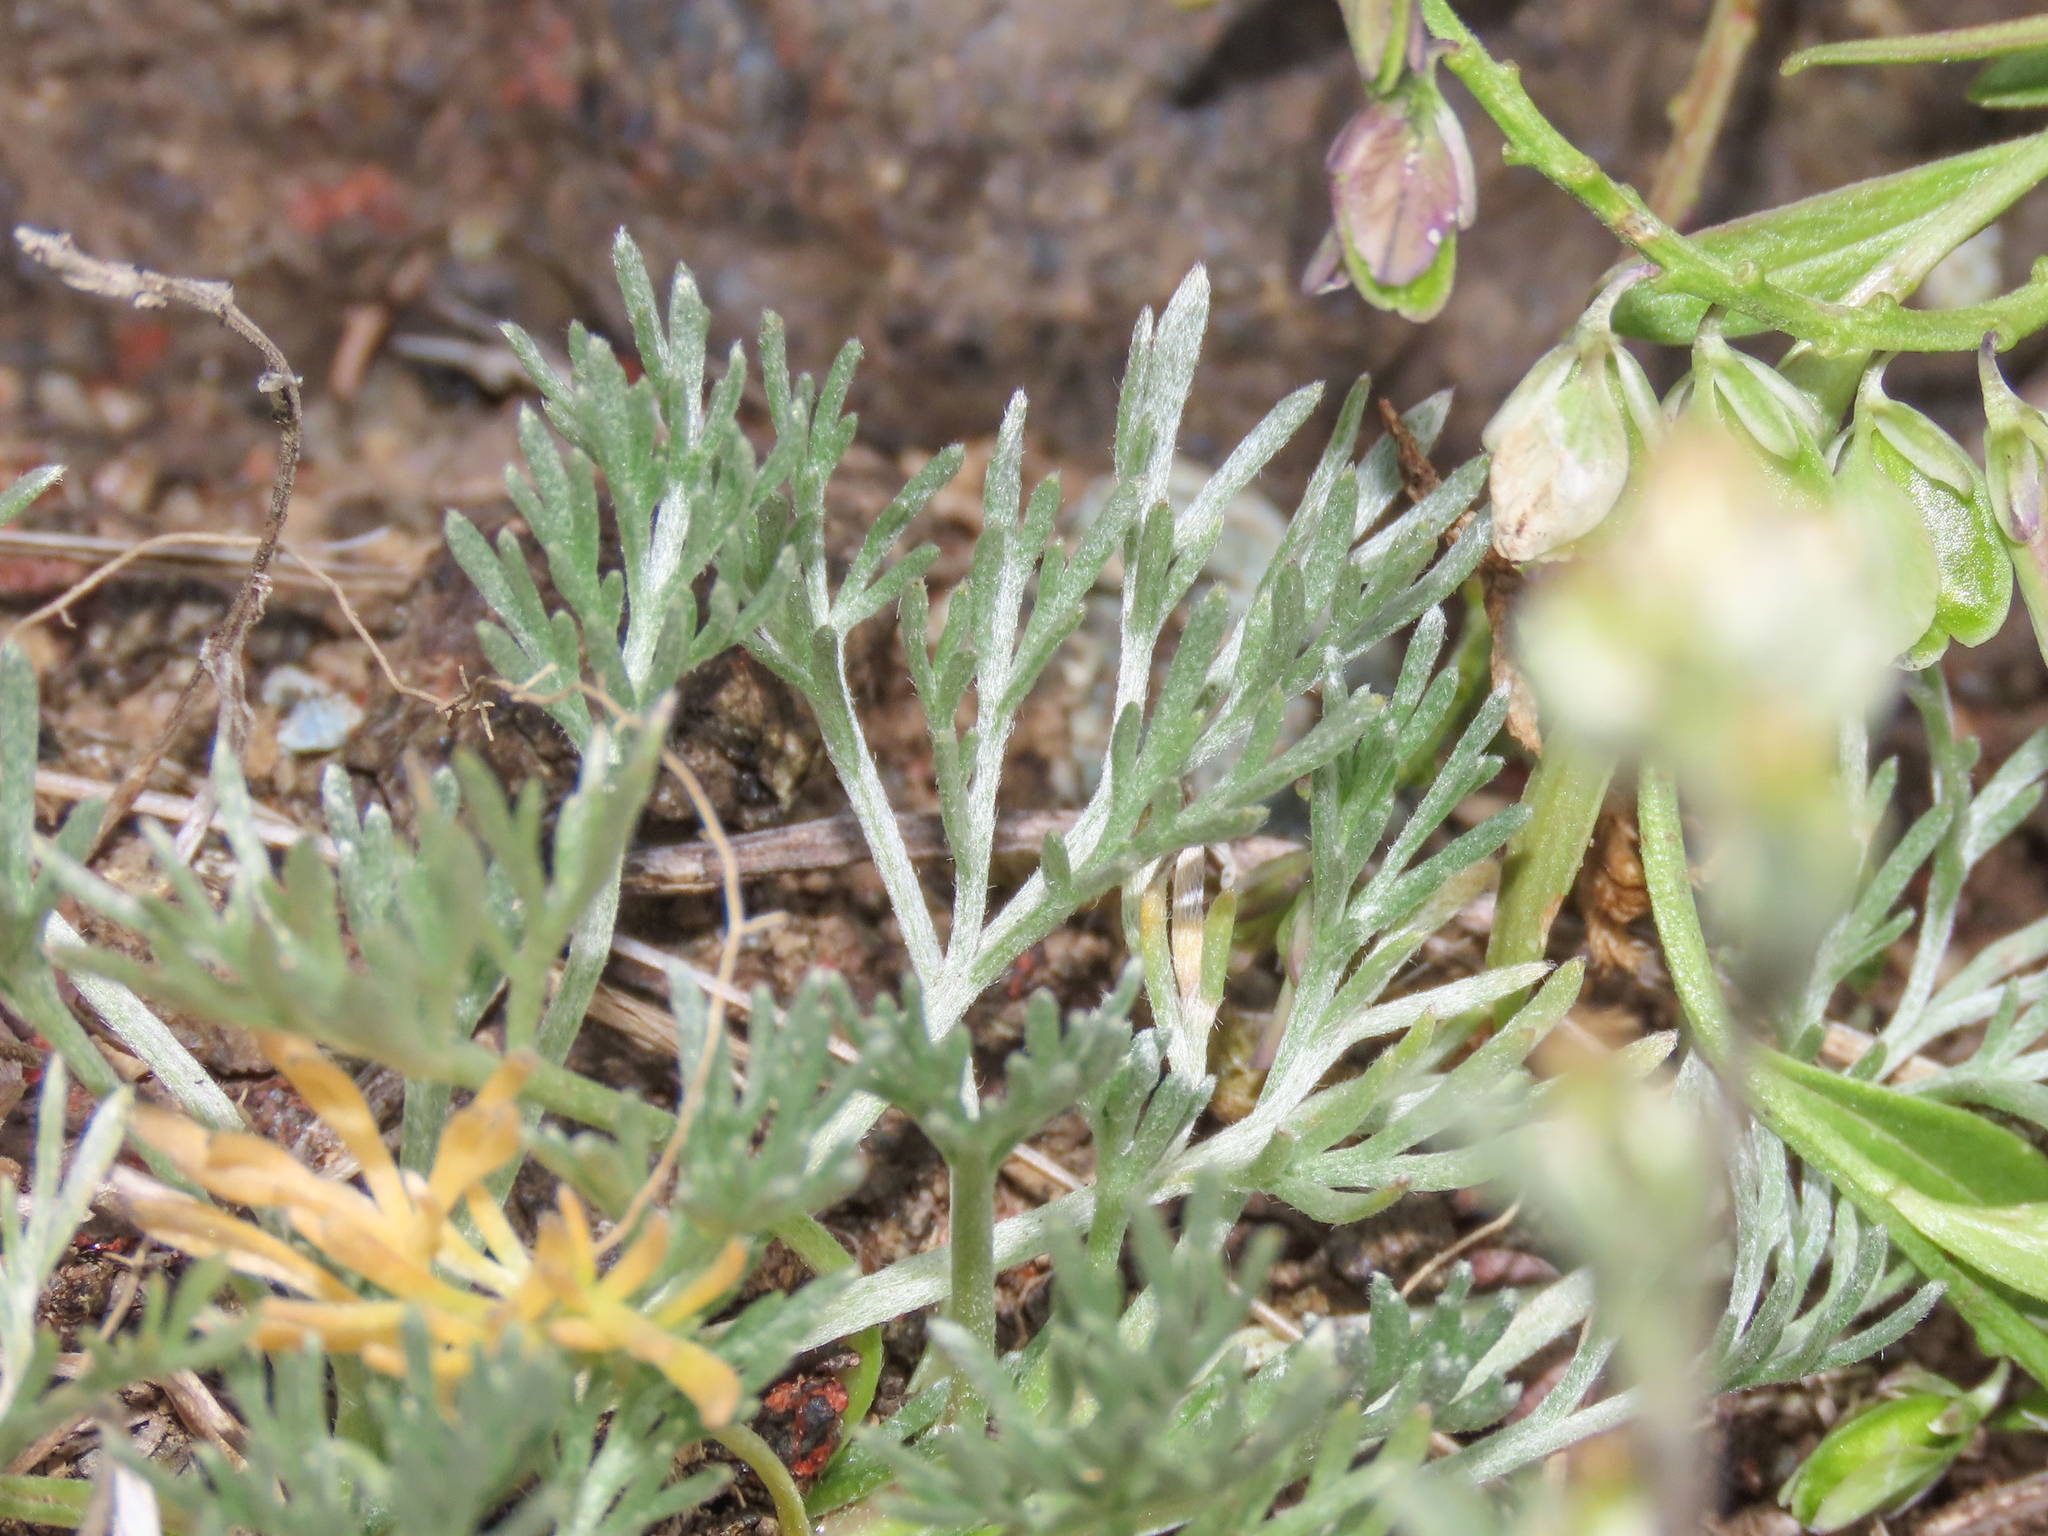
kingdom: Plantae
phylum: Tracheophyta
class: Magnoliopsida
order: Asterales
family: Asteraceae
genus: Artemisia
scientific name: Artemisia umbelliformis
